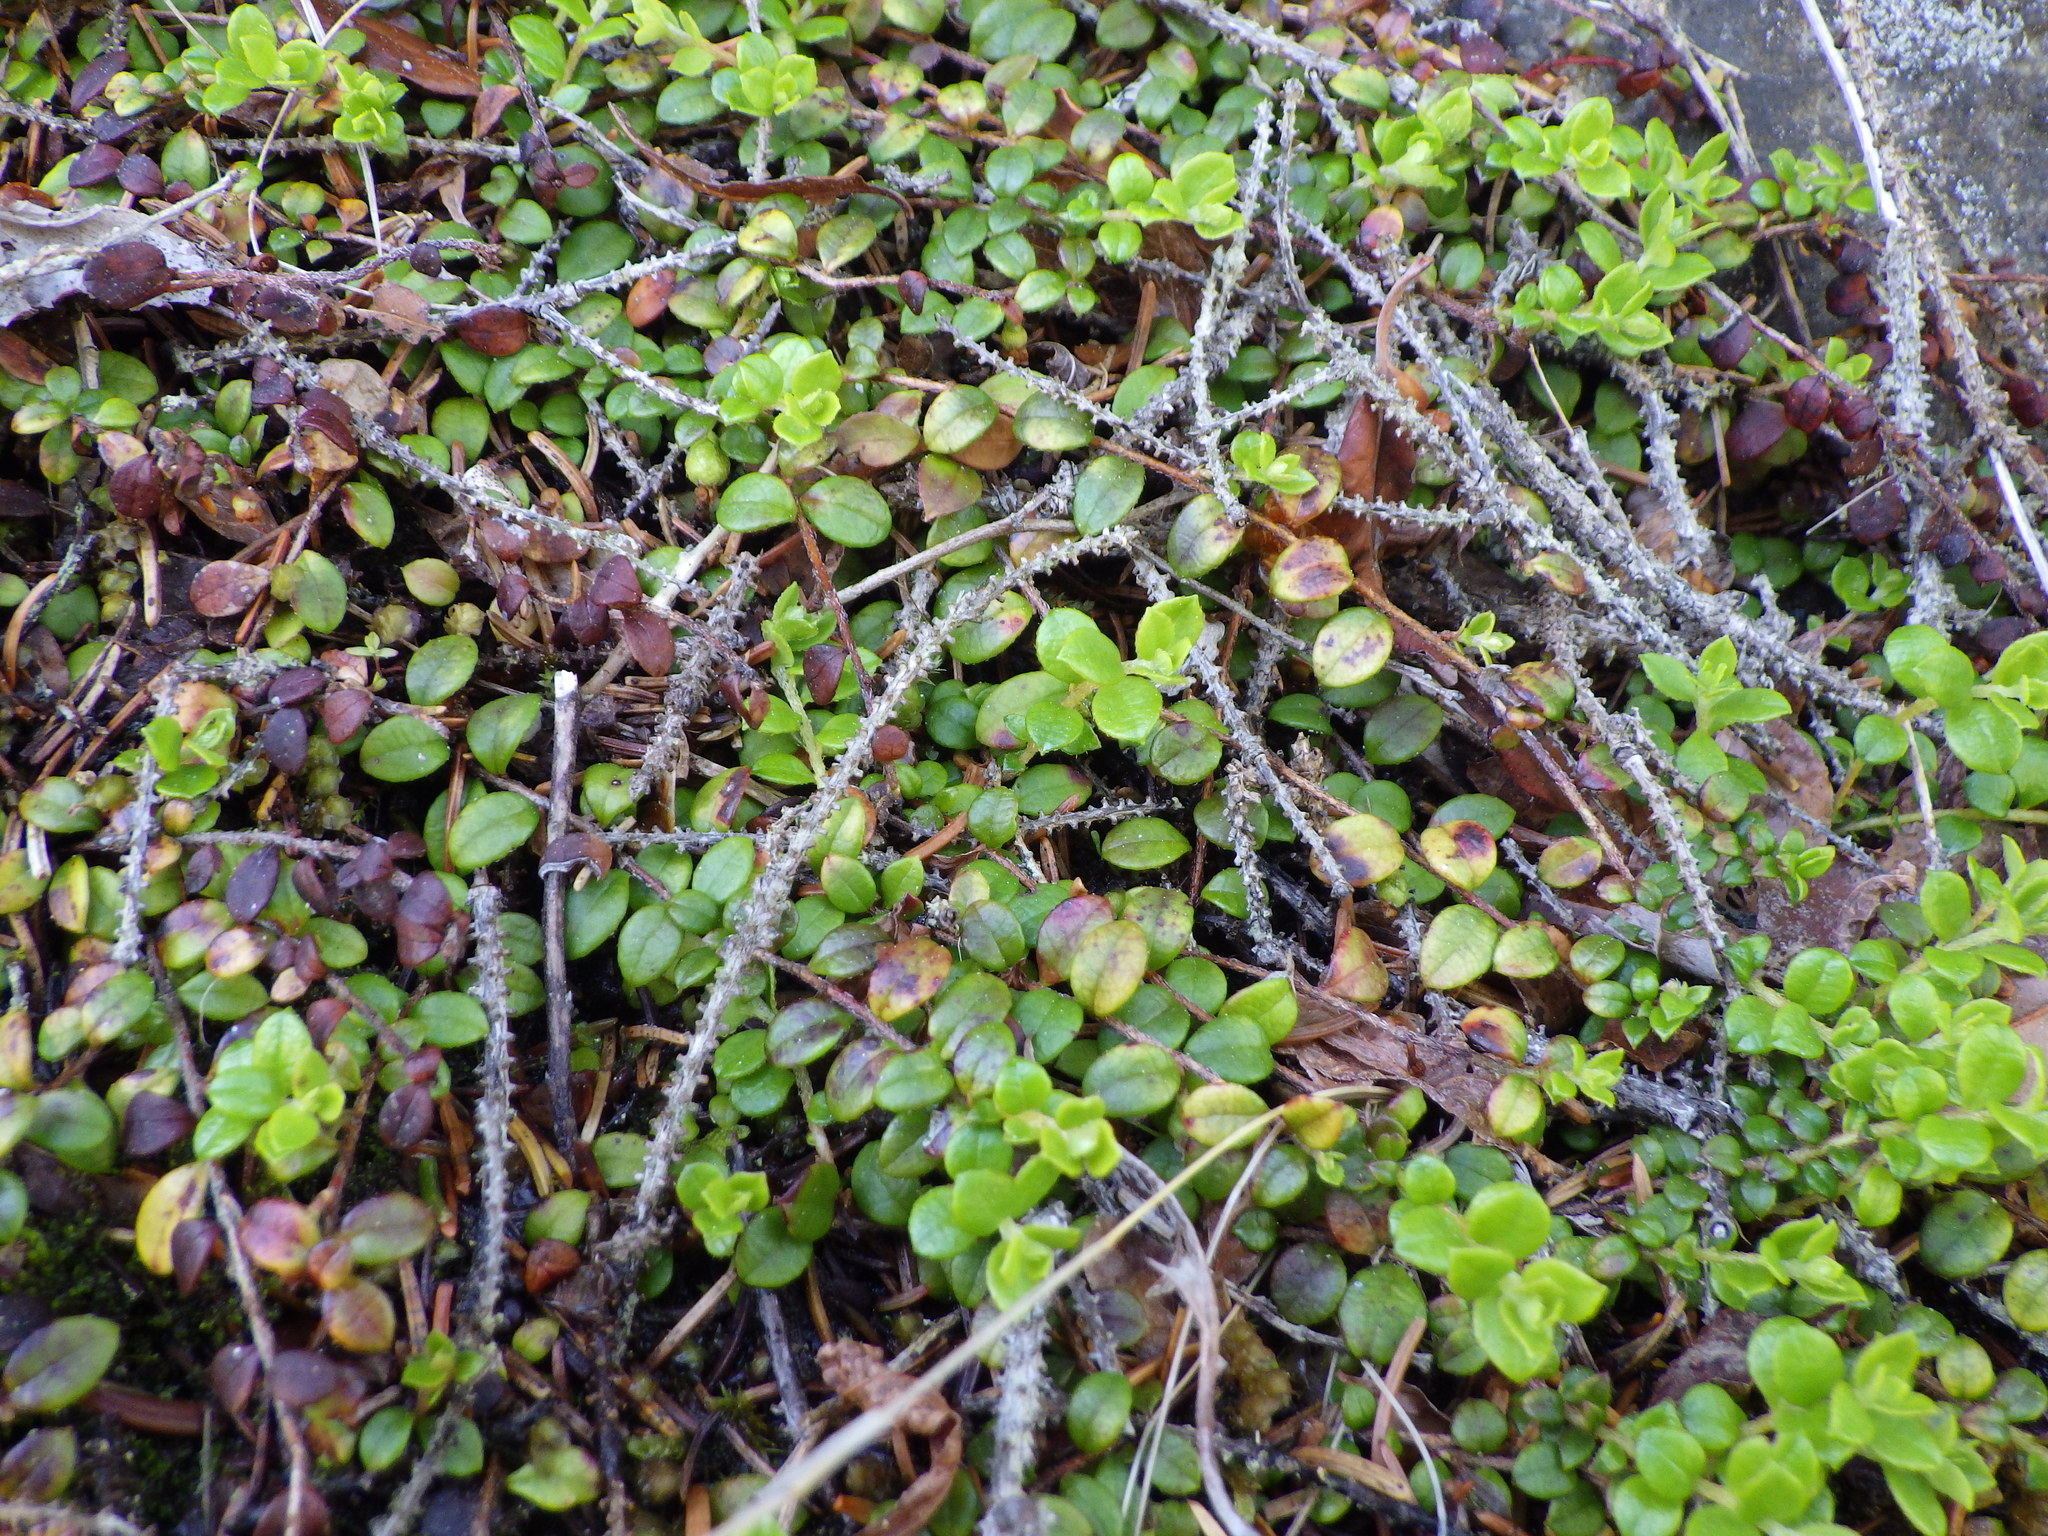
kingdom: Plantae
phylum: Tracheophyta
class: Magnoliopsida
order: Ericales
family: Ericaceae
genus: Gaultheria
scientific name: Gaultheria hispidula
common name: Cancer wintergreen
